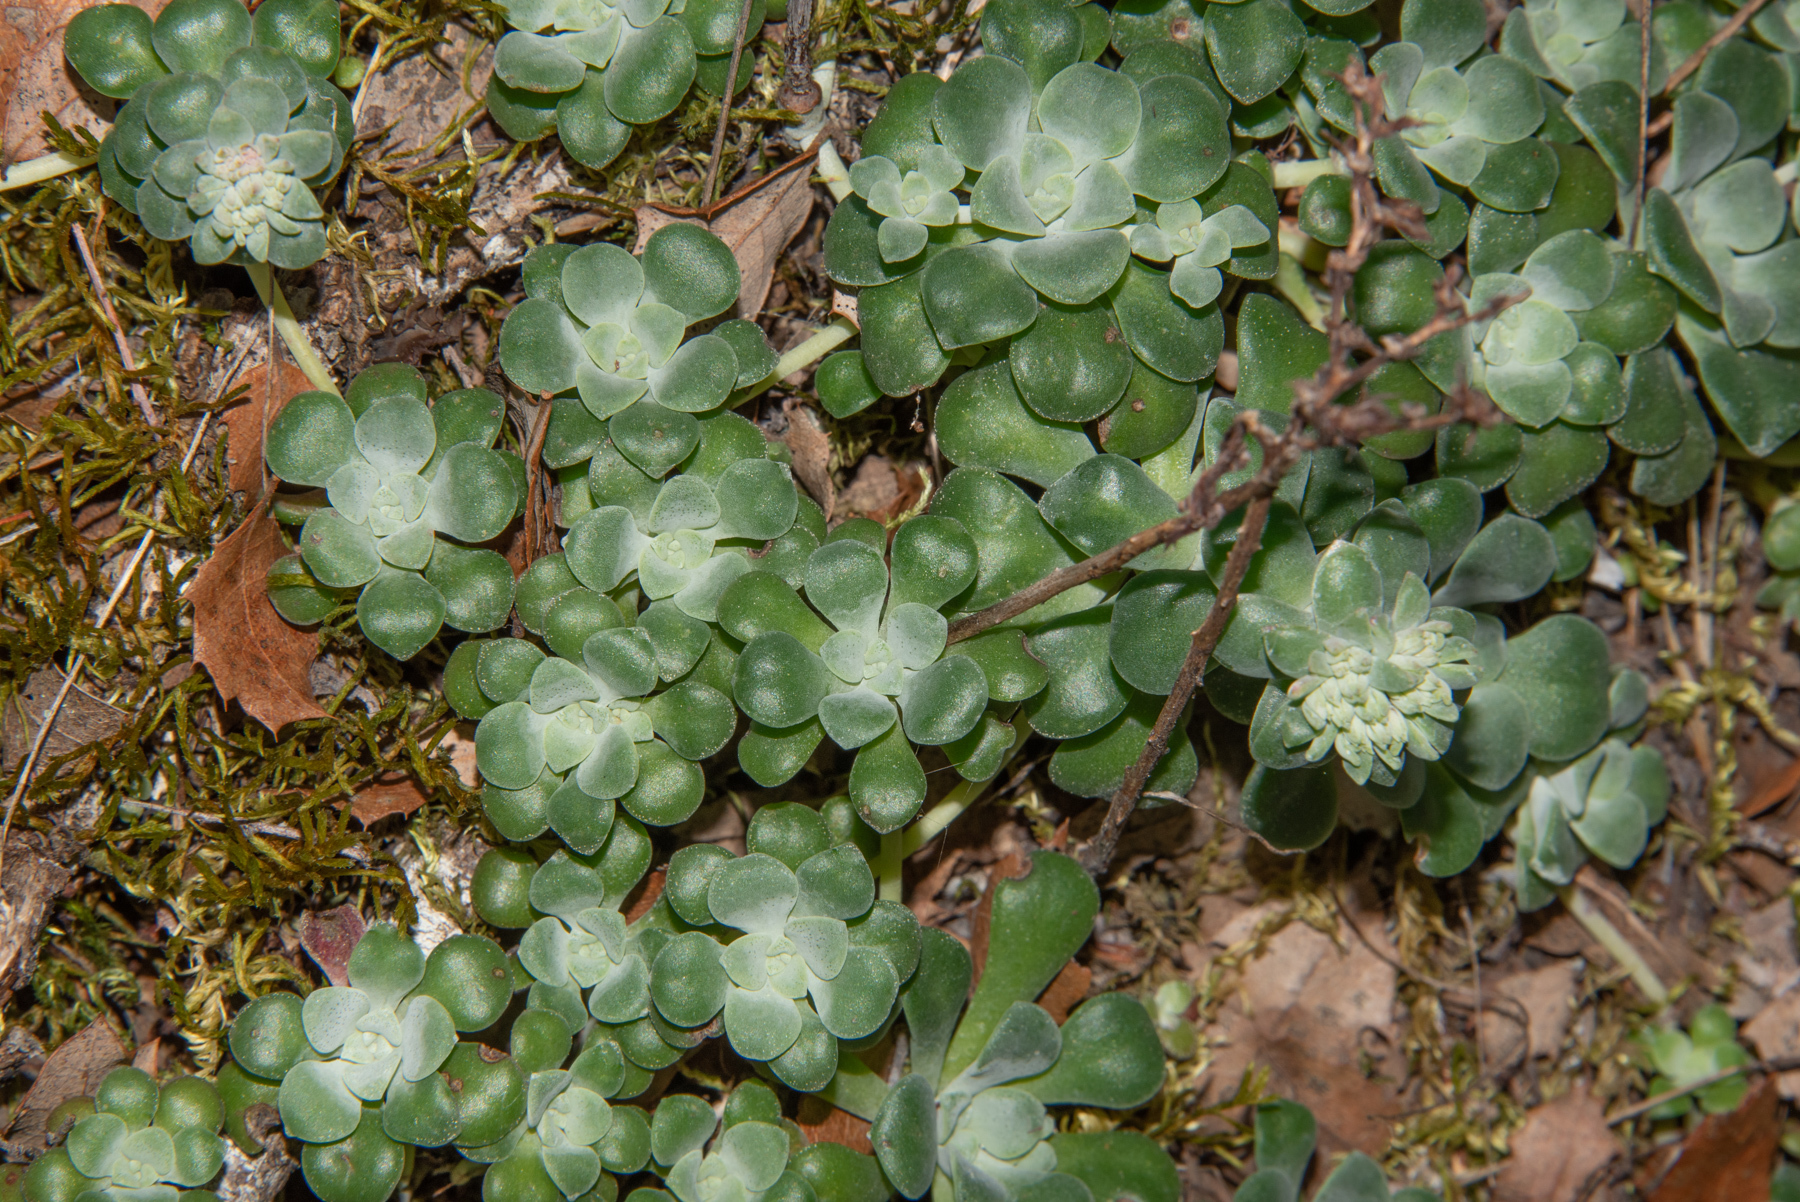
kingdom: Plantae
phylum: Tracheophyta
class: Magnoliopsida
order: Saxifragales
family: Crassulaceae
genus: Sedum
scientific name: Sedum spathulifolium
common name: Colorado stonecrop
